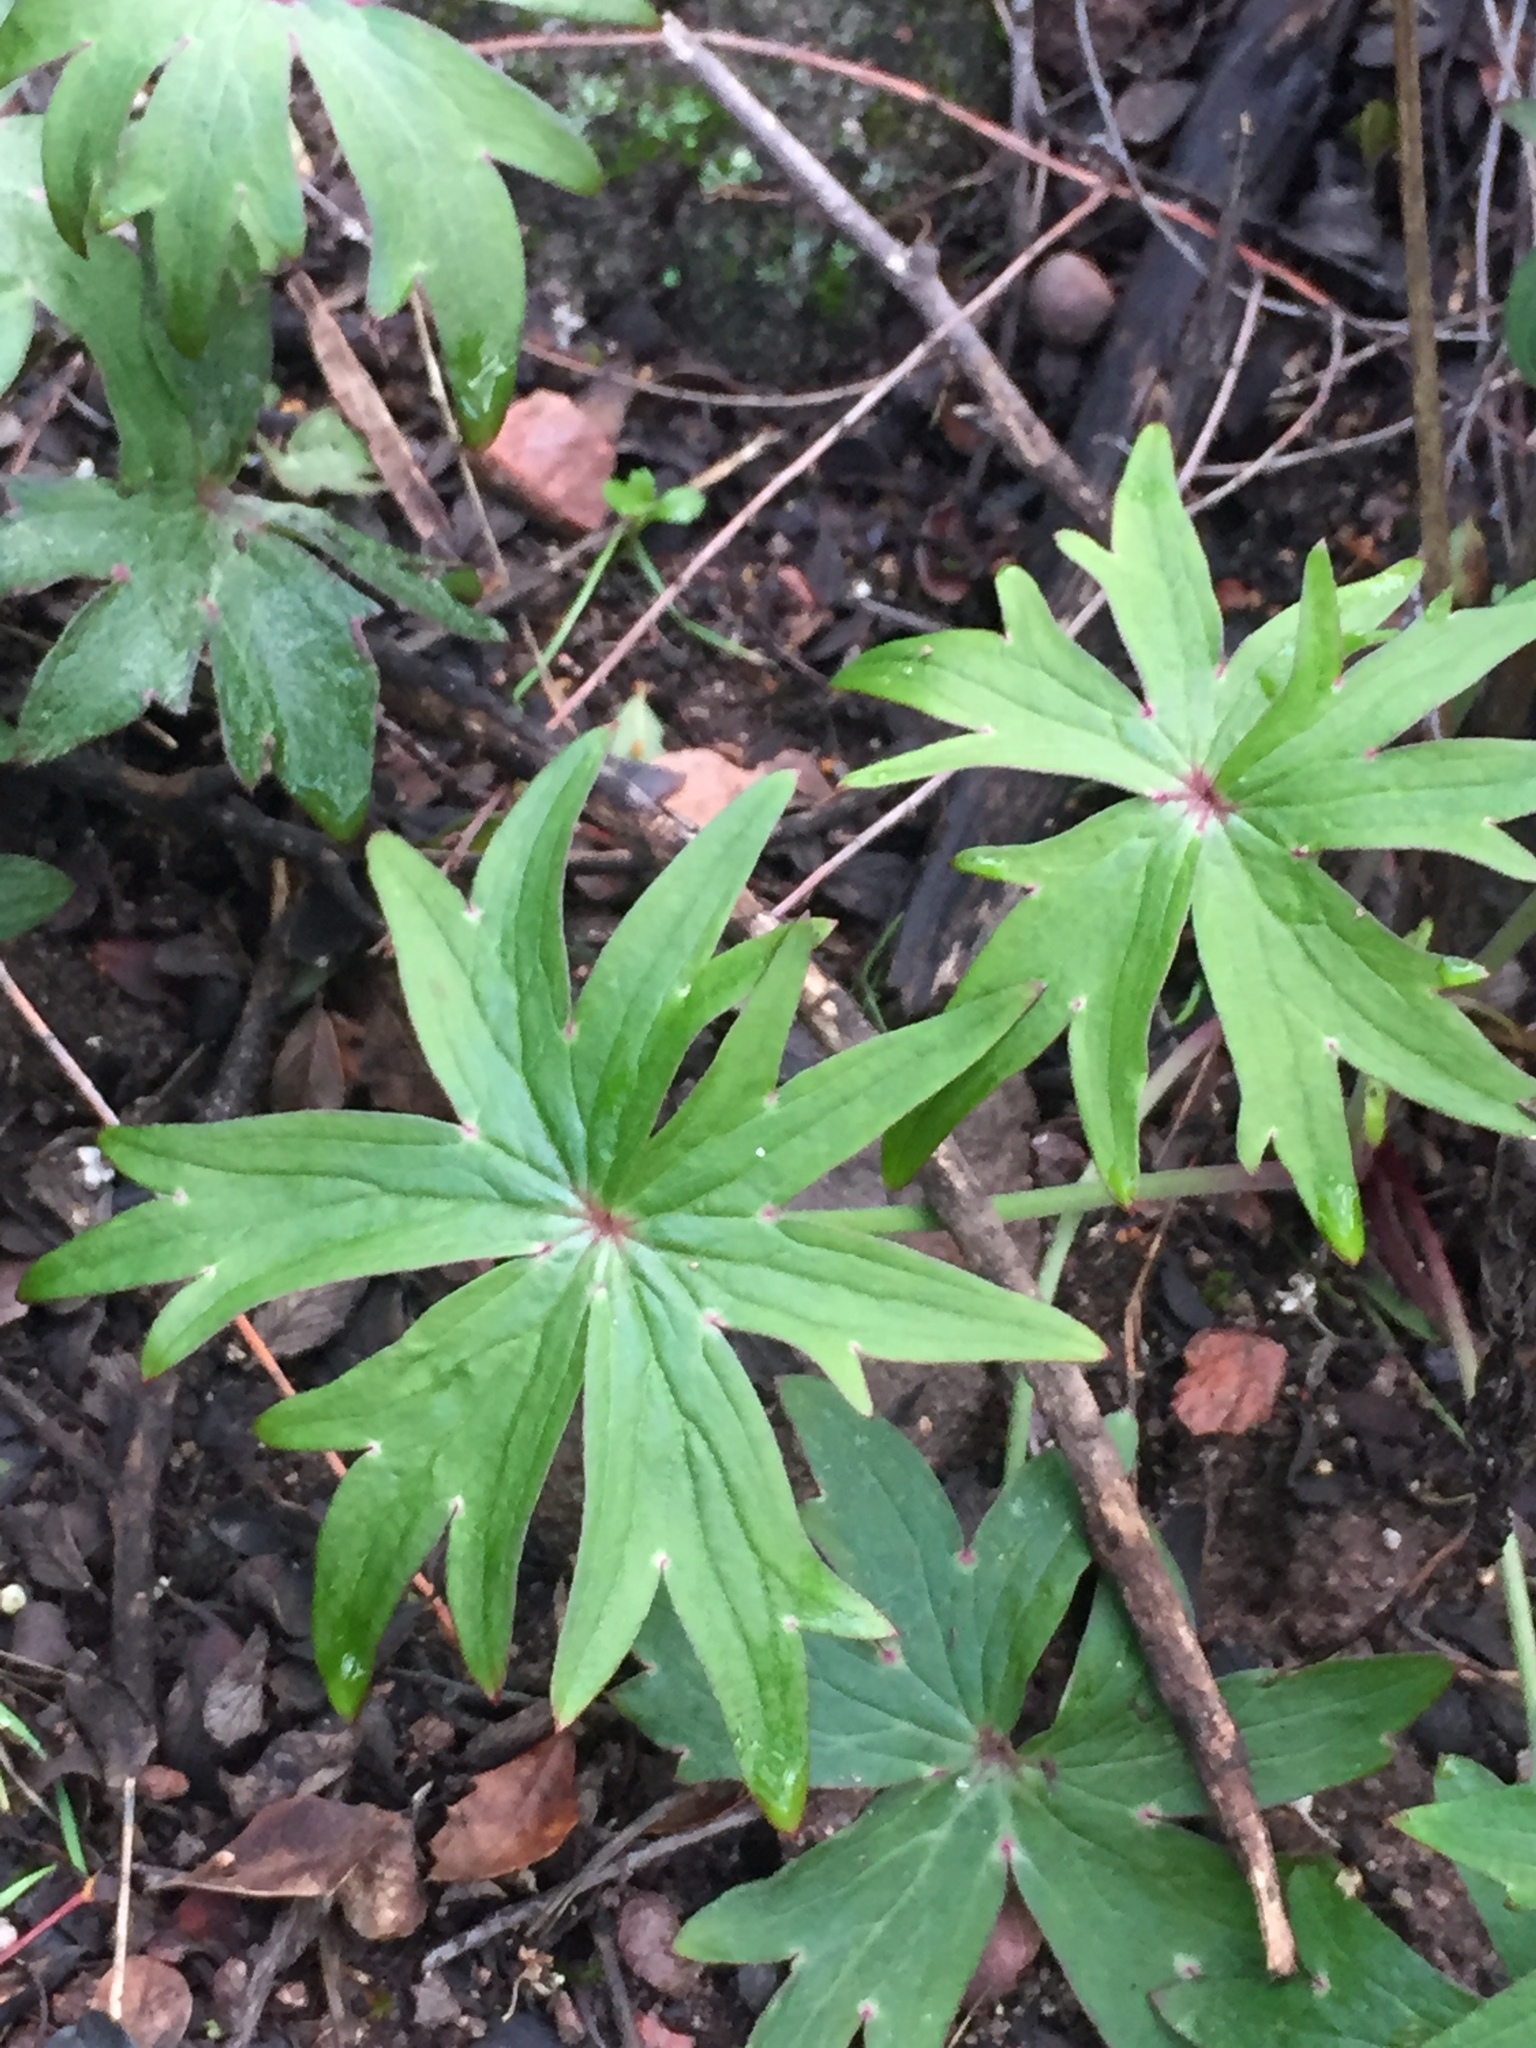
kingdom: Plantae
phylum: Tracheophyta
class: Magnoliopsida
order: Ranunculales
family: Ranunculaceae
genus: Delphinium
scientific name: Delphinium cardinale
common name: Scarlet larkspur
